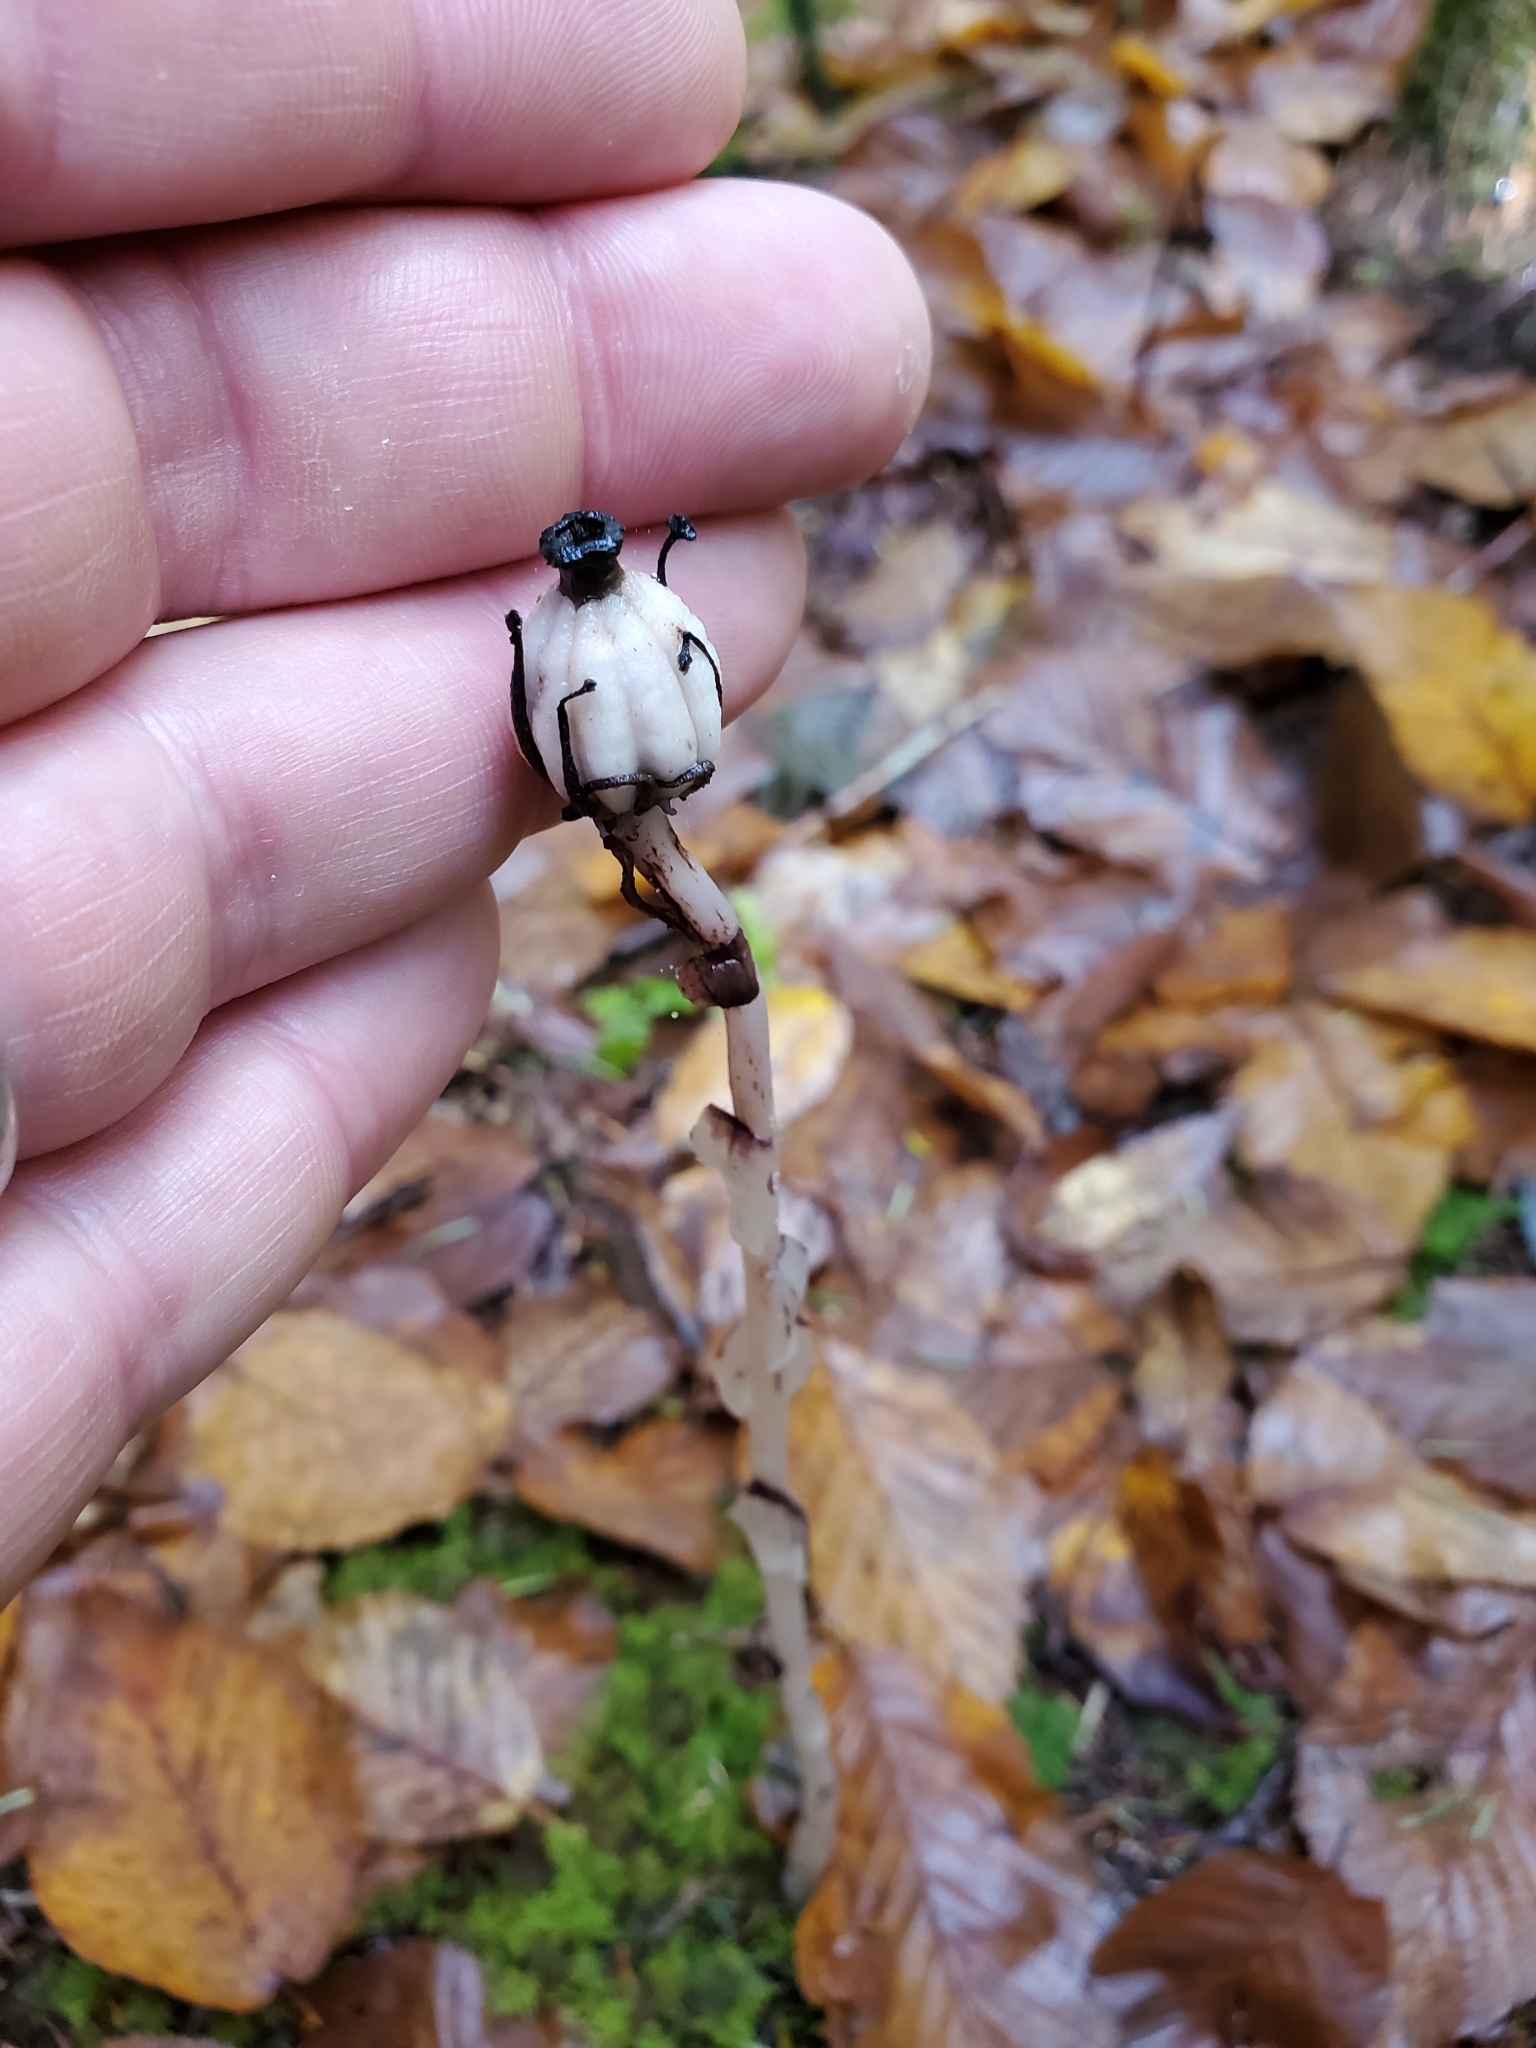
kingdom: Plantae
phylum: Tracheophyta
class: Magnoliopsida
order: Ericales
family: Ericaceae
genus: Monotropa
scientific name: Monotropa uniflora
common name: Convulsion root
